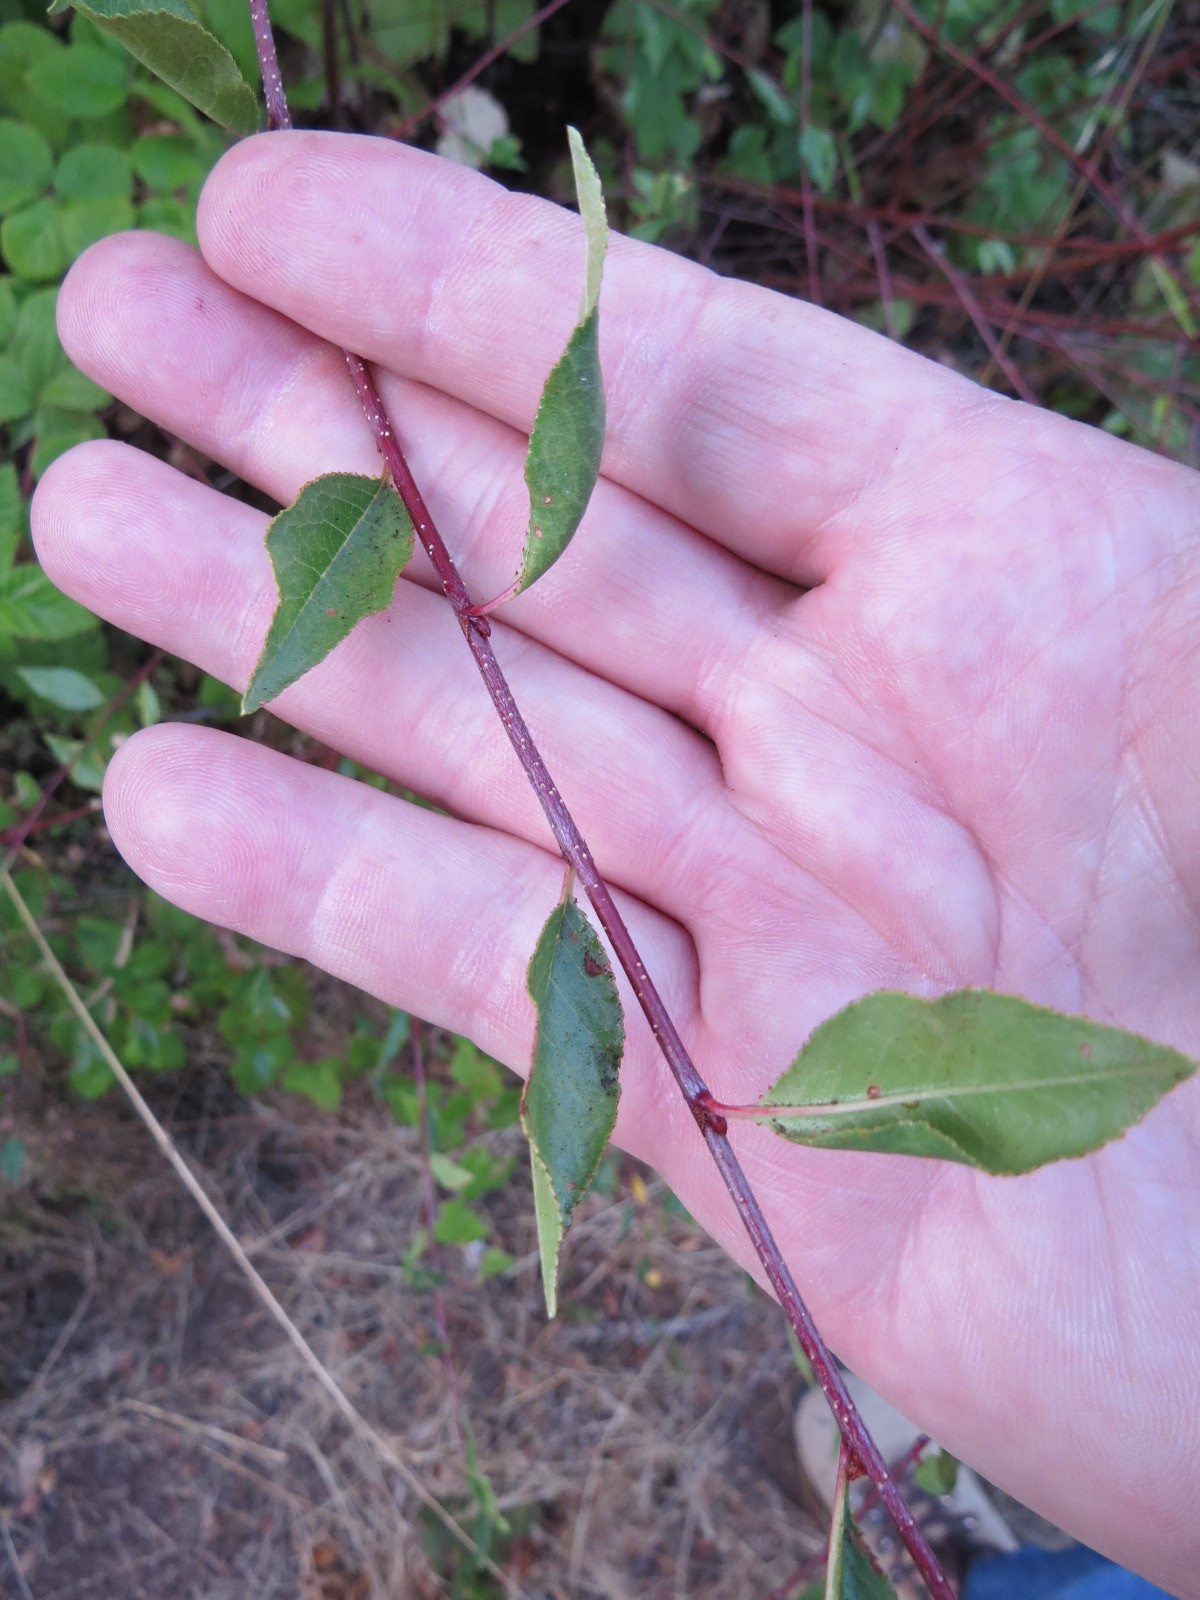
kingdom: Plantae
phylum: Tracheophyta
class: Magnoliopsida
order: Rosales
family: Rosaceae
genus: Prunus
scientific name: Prunus emarginata
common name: Bitter cherry
